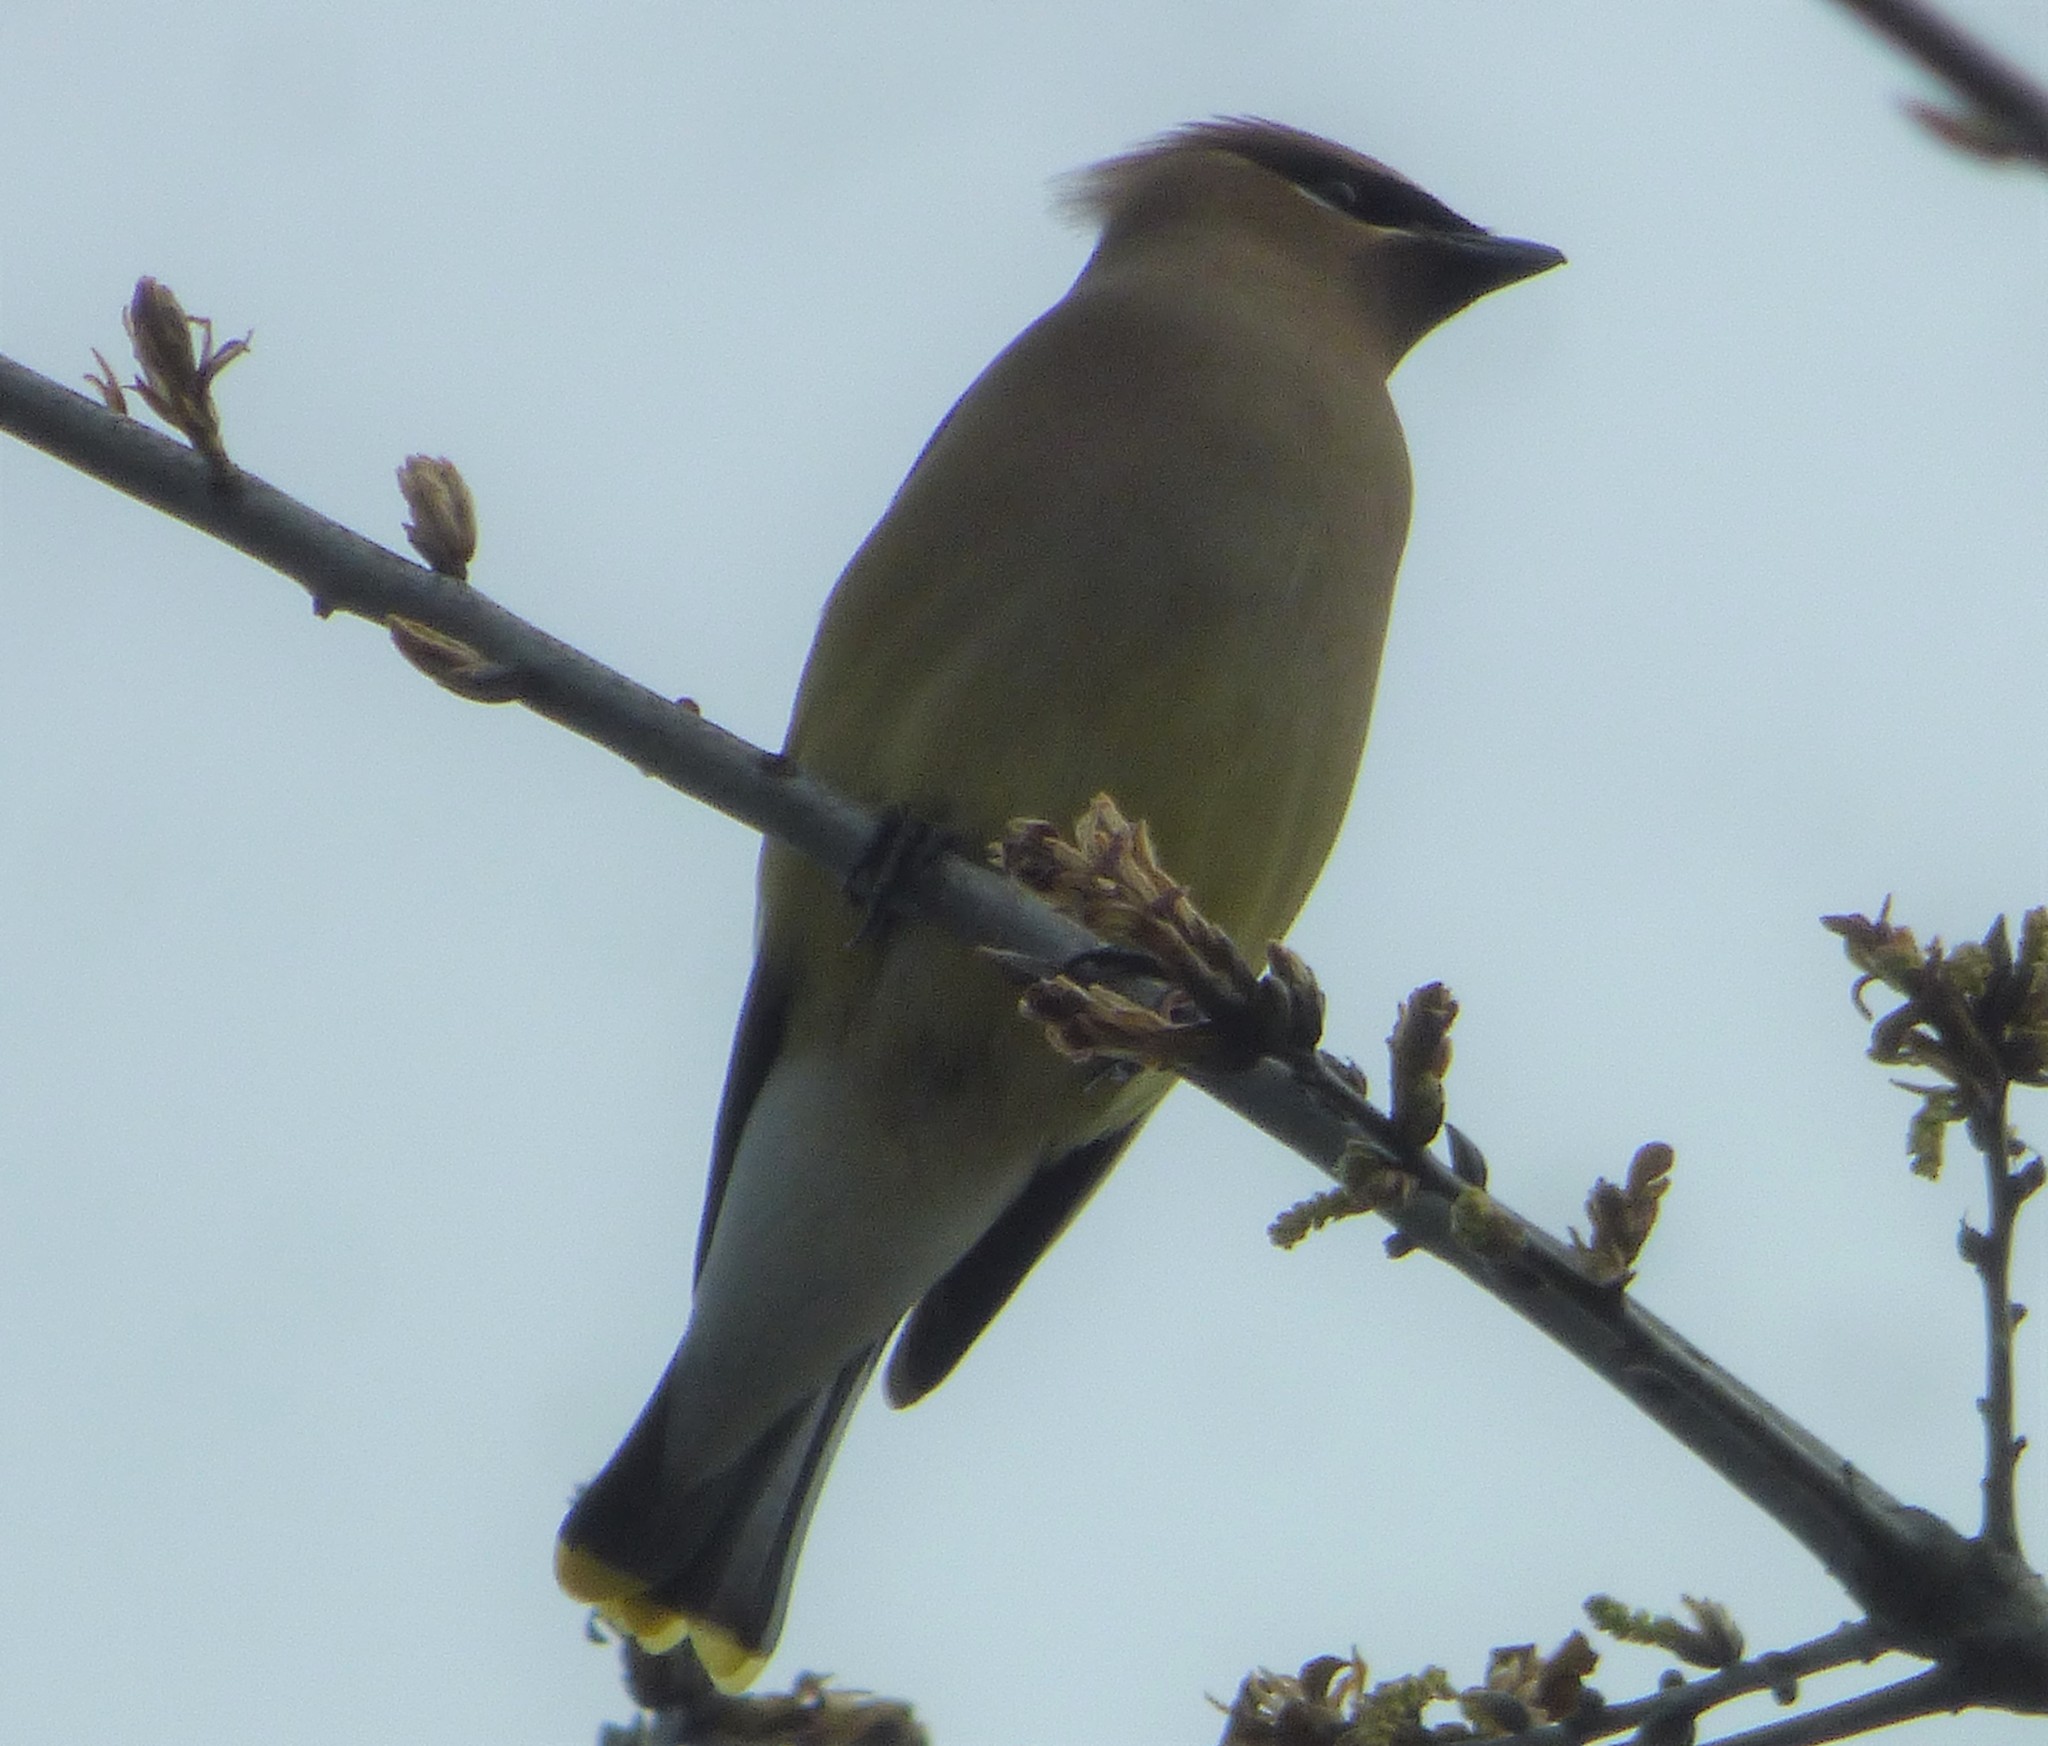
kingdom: Animalia
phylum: Chordata
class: Aves
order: Passeriformes
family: Bombycillidae
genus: Bombycilla
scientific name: Bombycilla cedrorum
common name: Cedar waxwing
